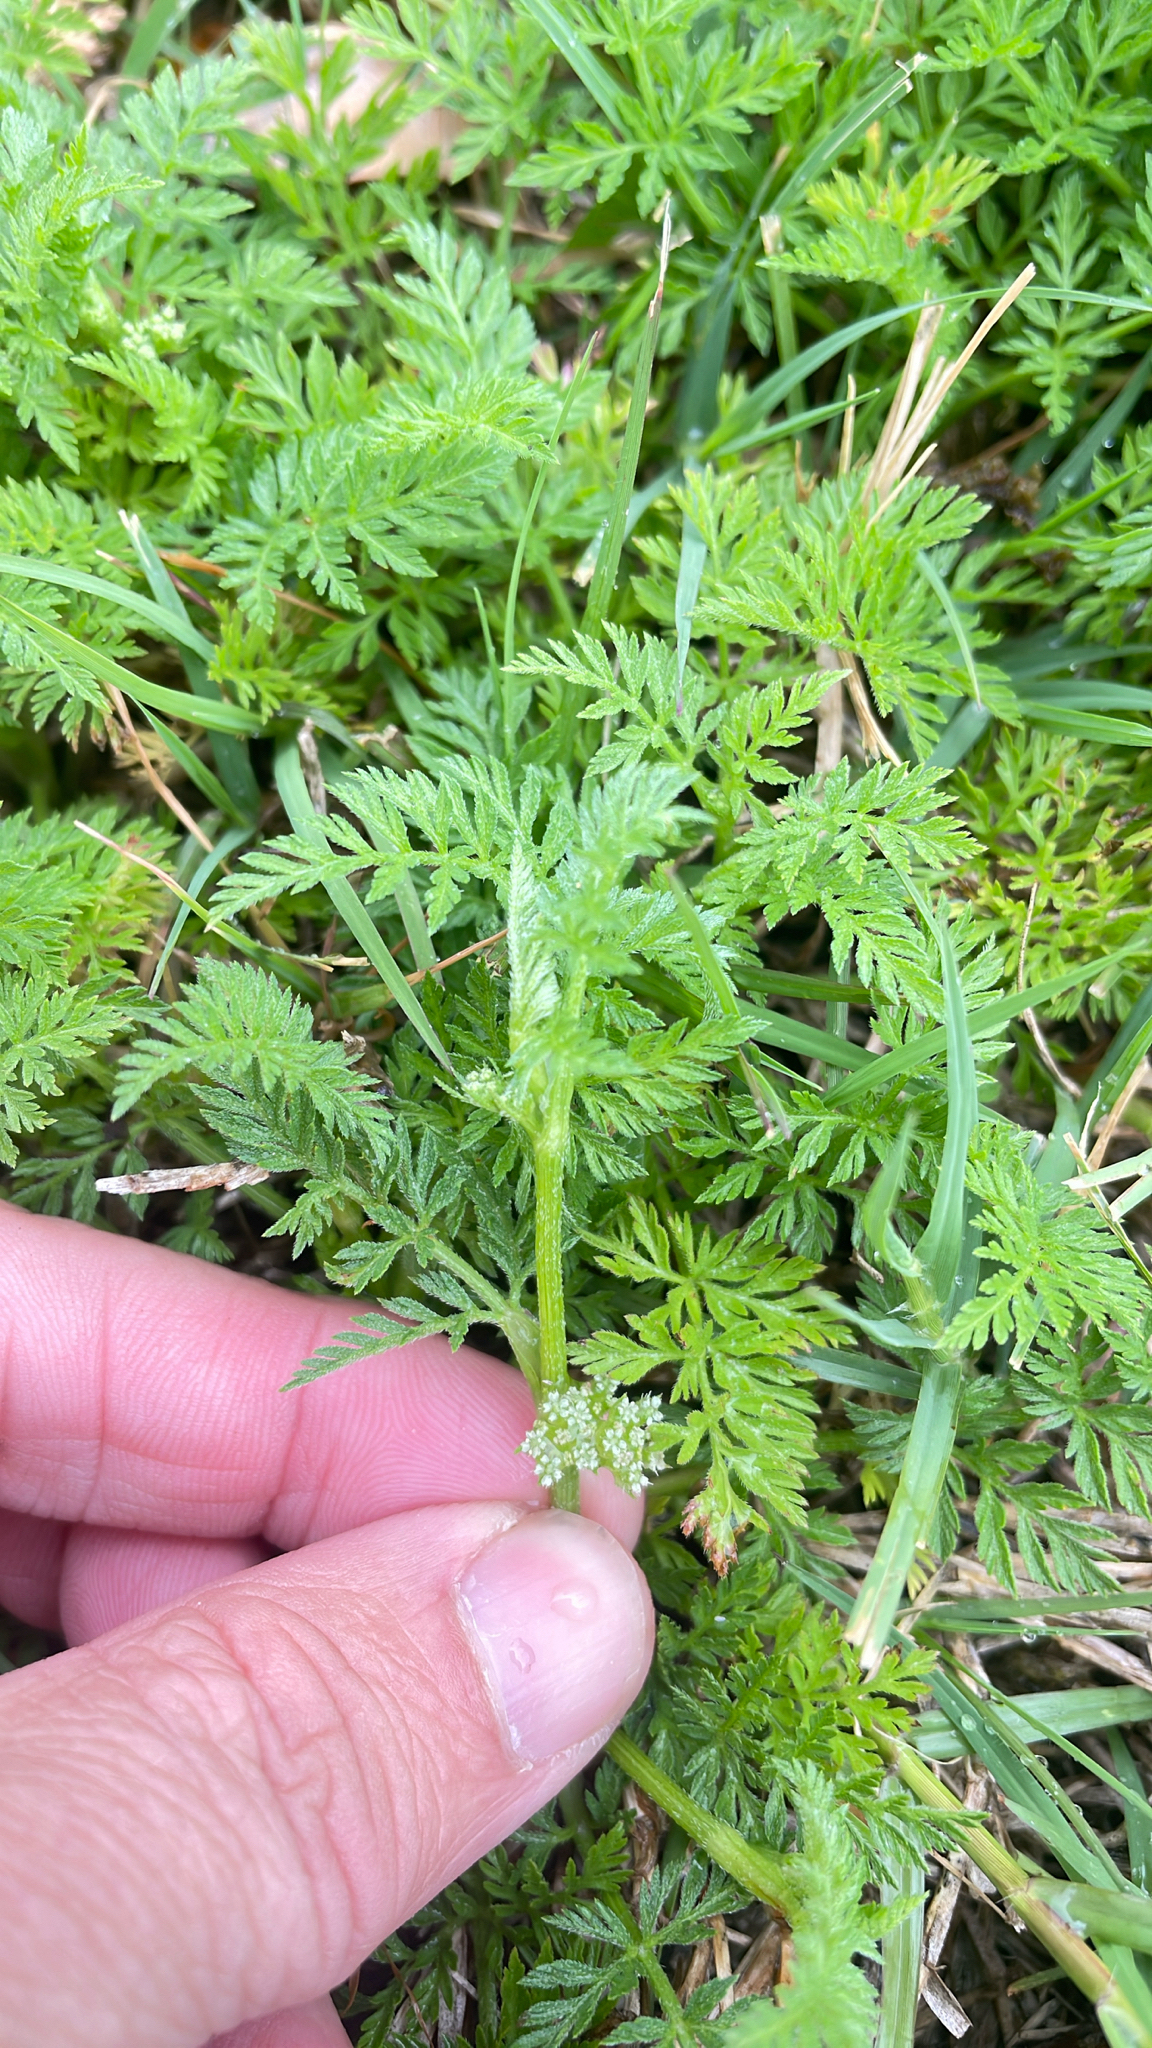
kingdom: Plantae
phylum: Tracheophyta
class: Magnoliopsida
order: Apiales
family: Apiaceae
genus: Torilis
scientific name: Torilis nodosa
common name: Knotted hedge-parsley
